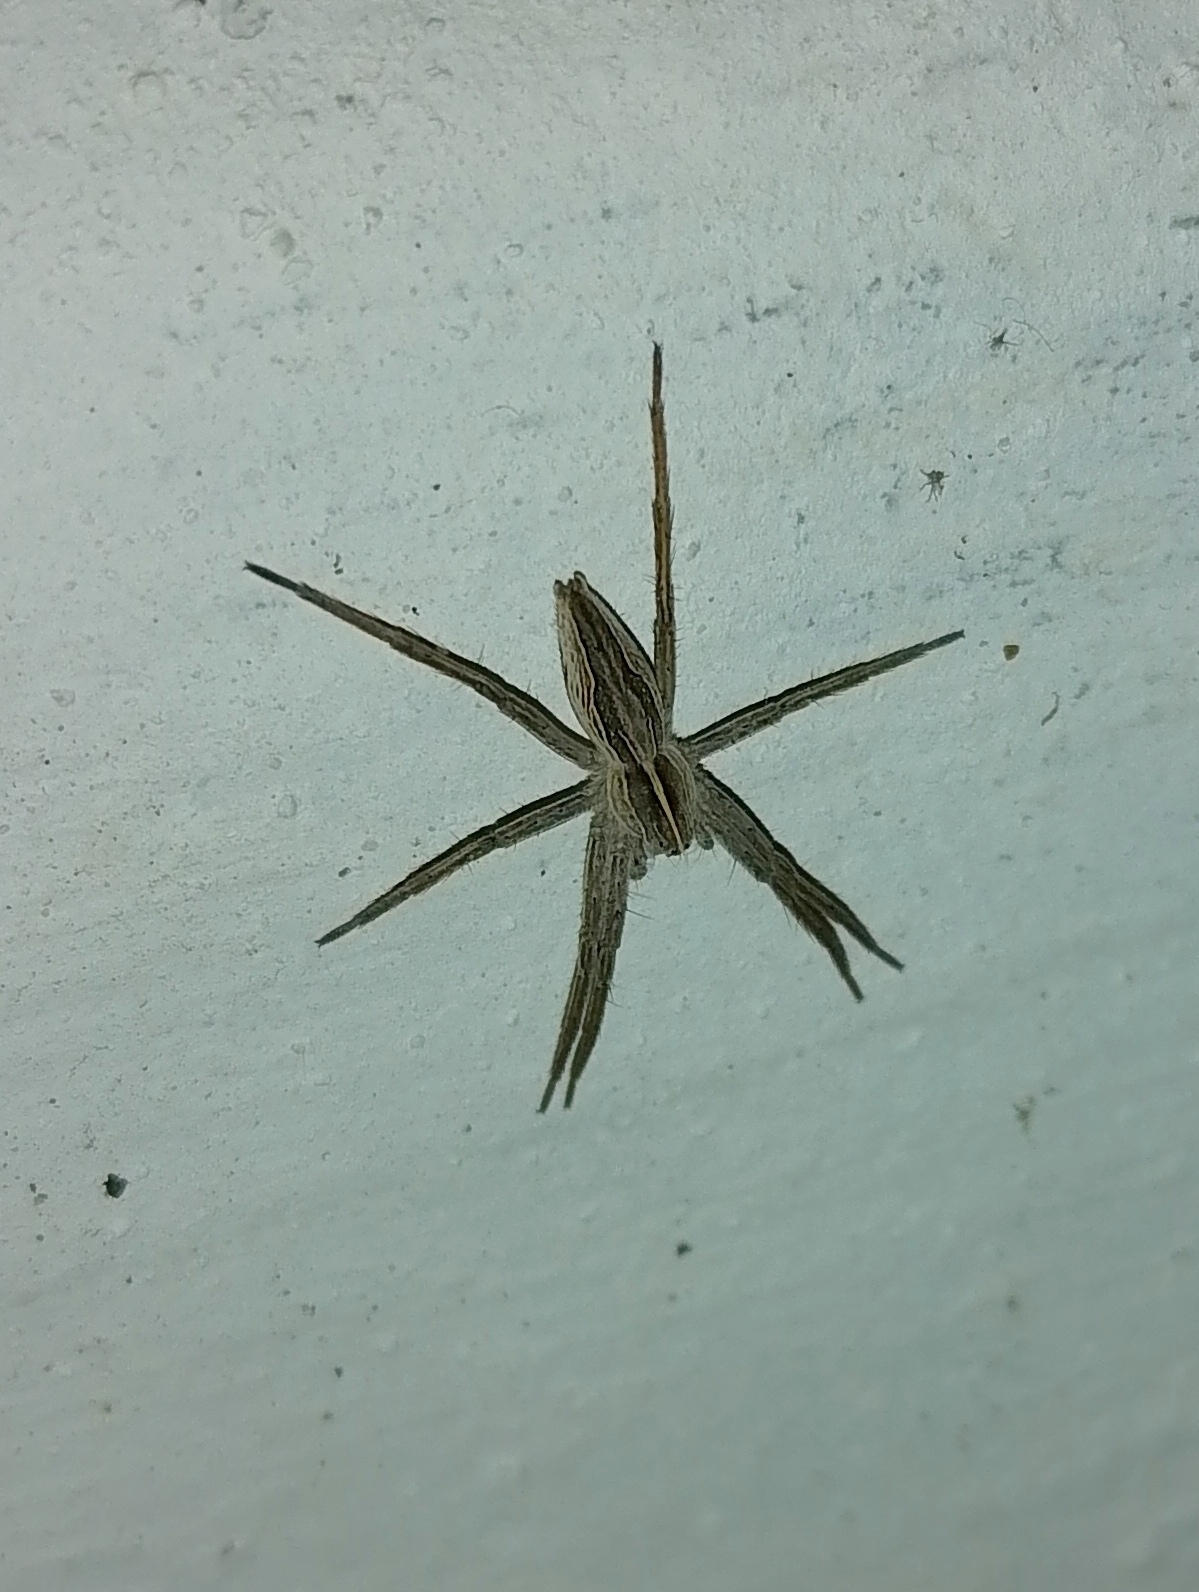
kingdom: Animalia
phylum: Arthropoda
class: Arachnida
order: Araneae
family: Pisauridae
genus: Pisaura
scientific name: Pisaura mirabilis
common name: Tent spider
